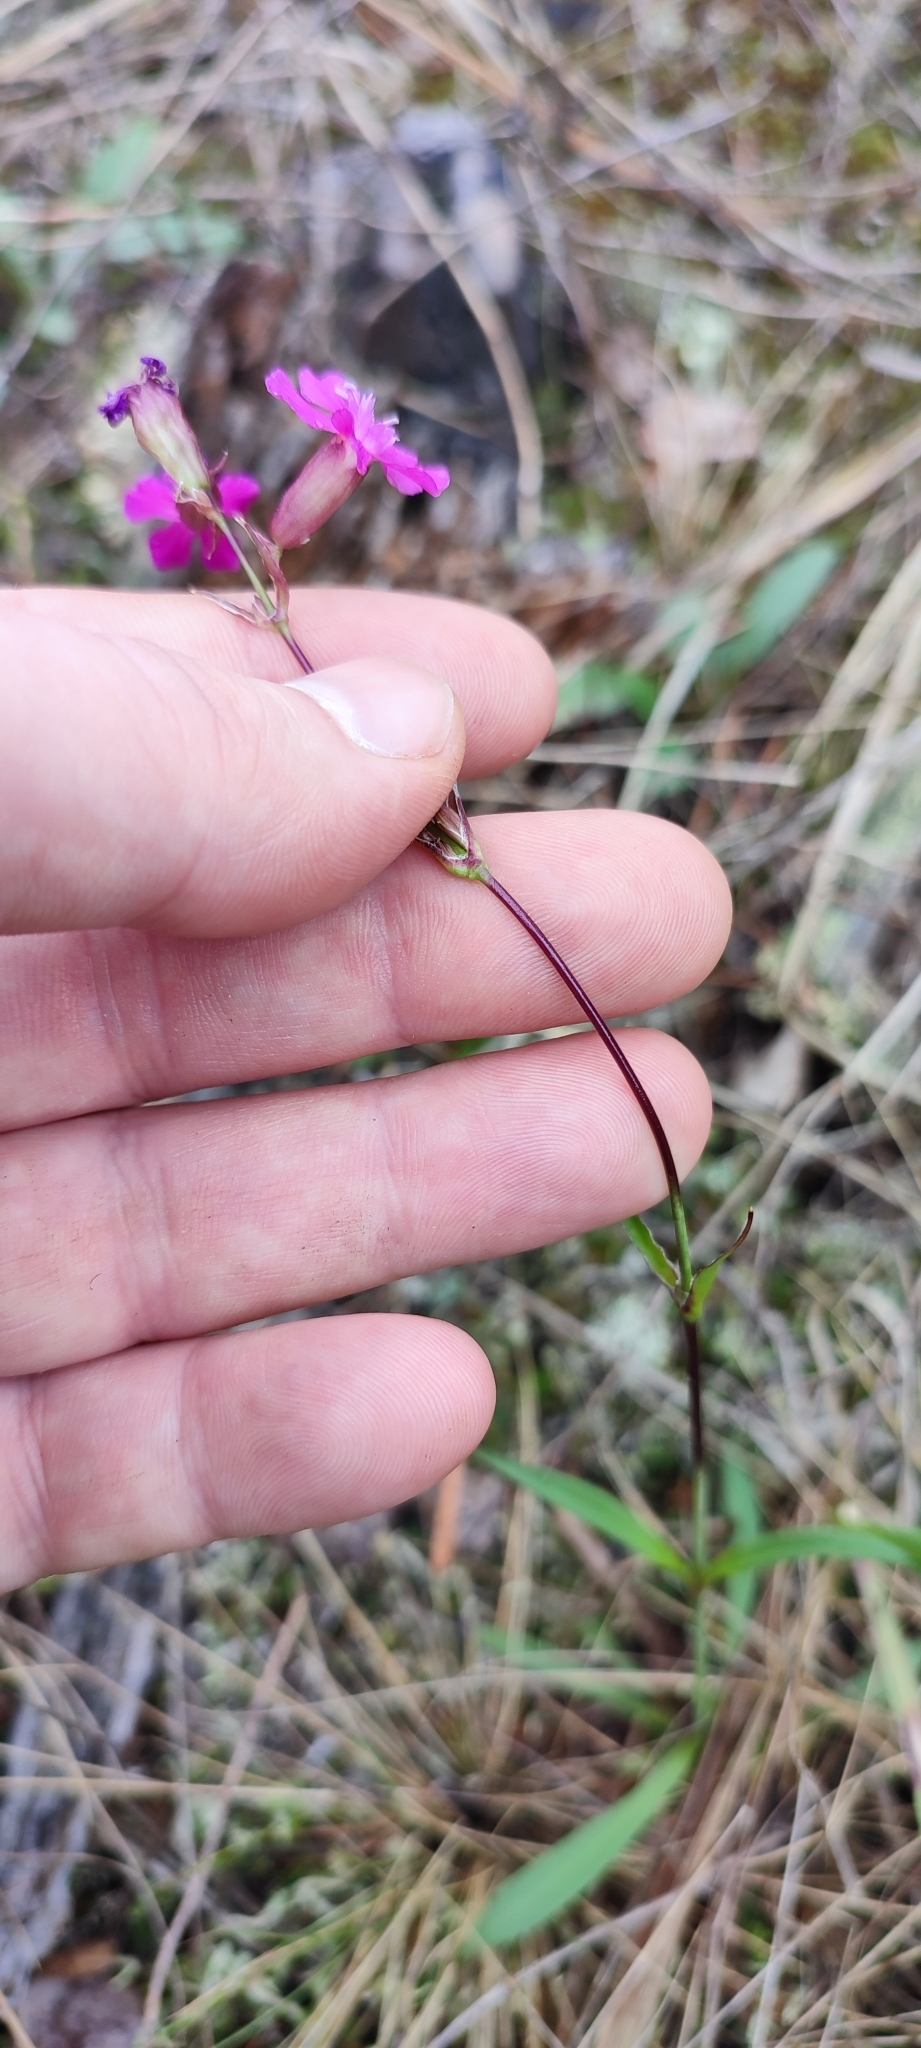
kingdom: Plantae
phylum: Tracheophyta
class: Magnoliopsida
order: Caryophyllales
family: Caryophyllaceae
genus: Viscaria
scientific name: Viscaria vulgaris
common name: Clammy campion
